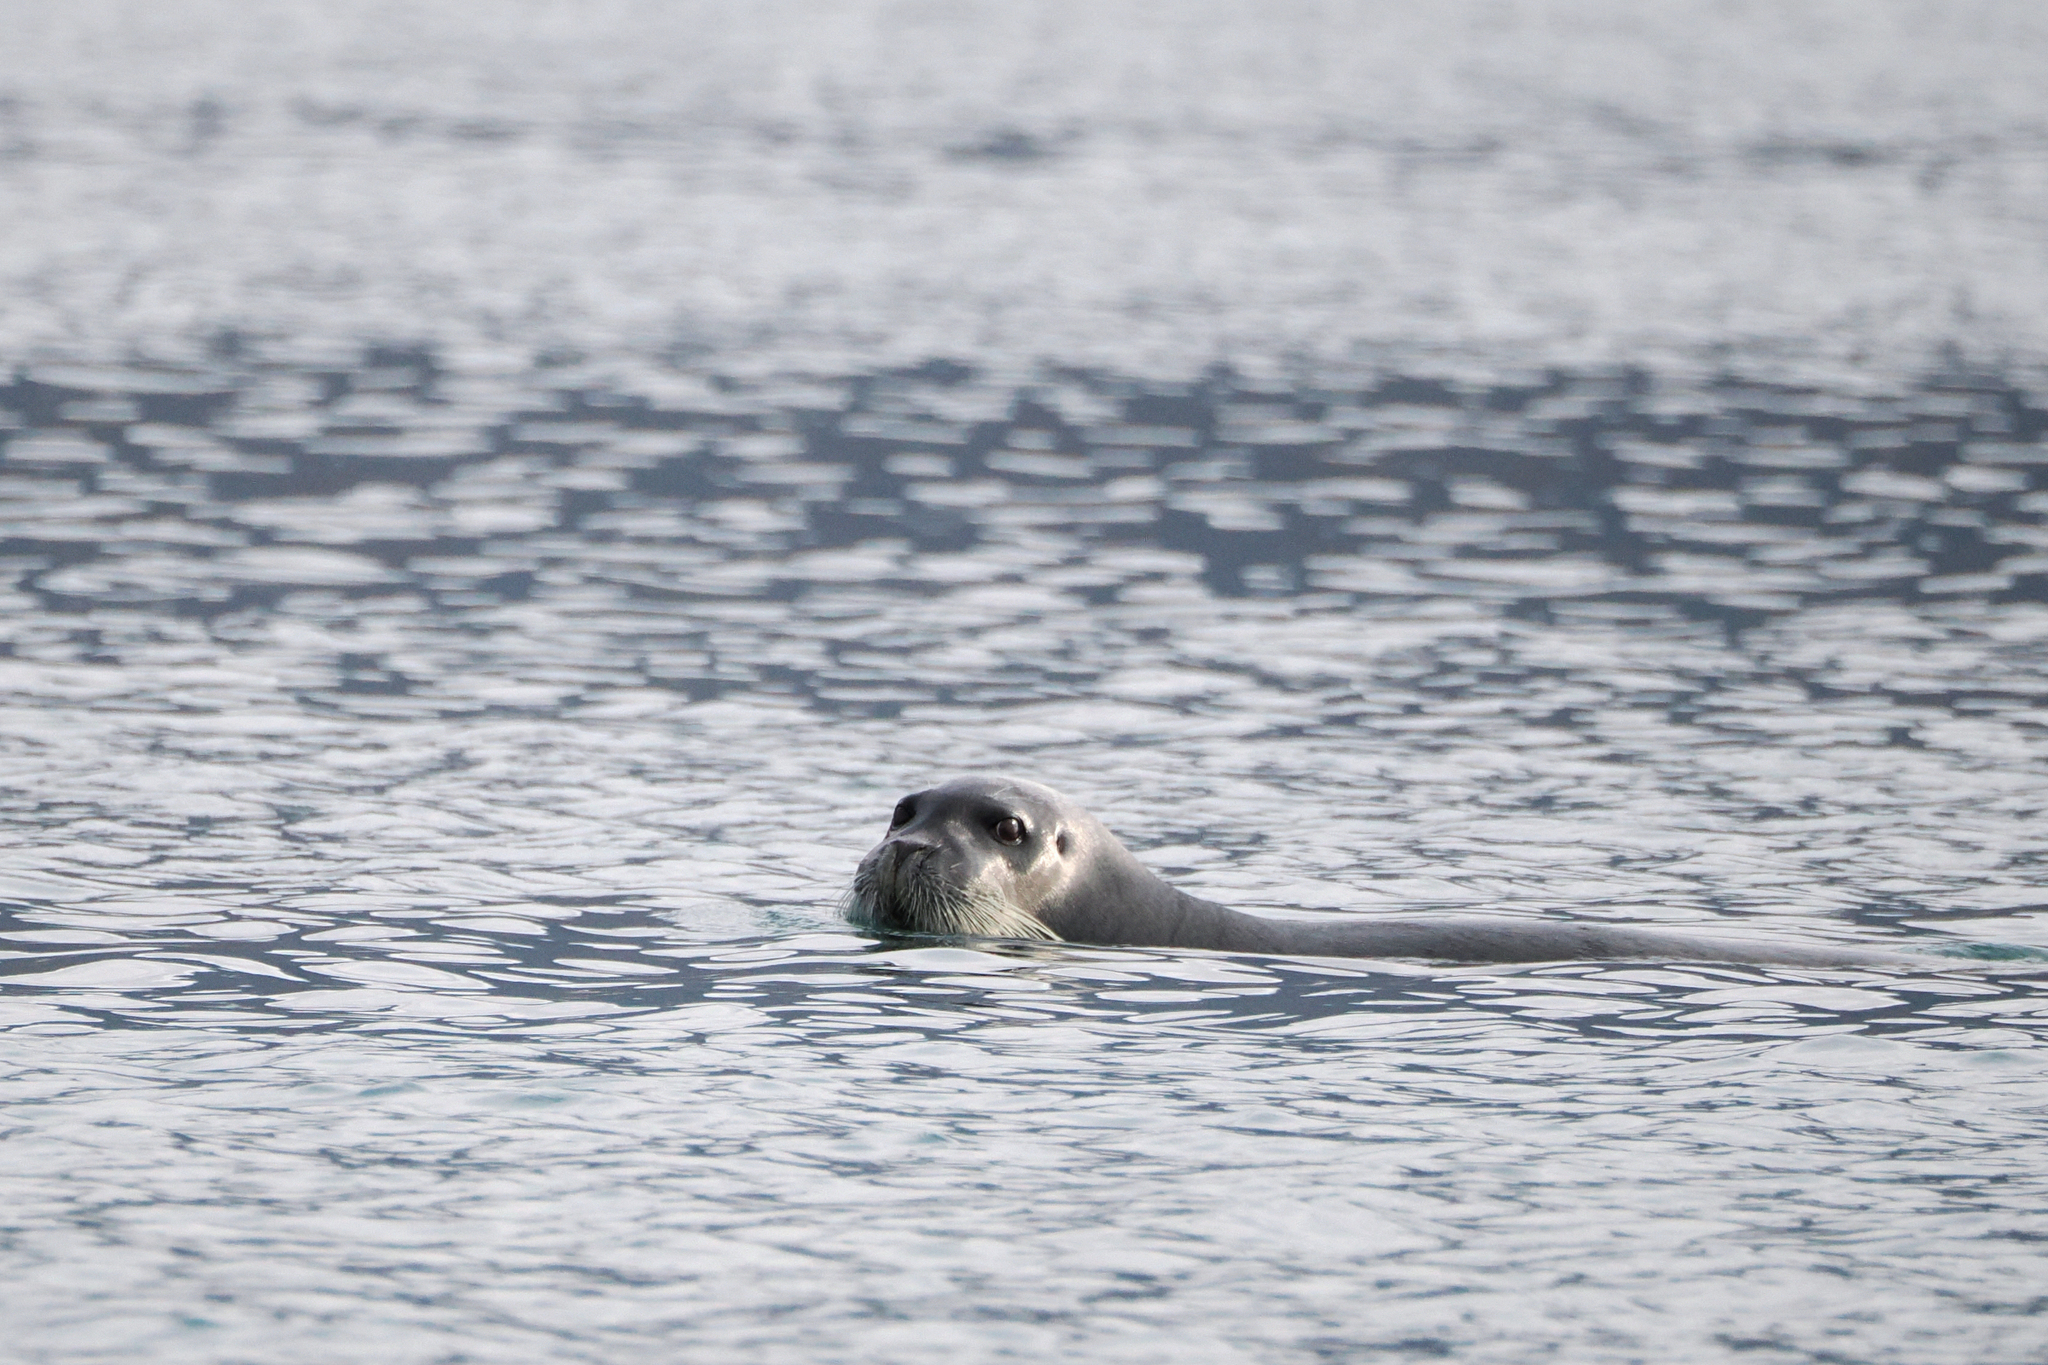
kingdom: Animalia
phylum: Chordata
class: Mammalia
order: Carnivora
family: Phocidae
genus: Erignathus
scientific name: Erignathus barbatus
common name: Bearded seal
